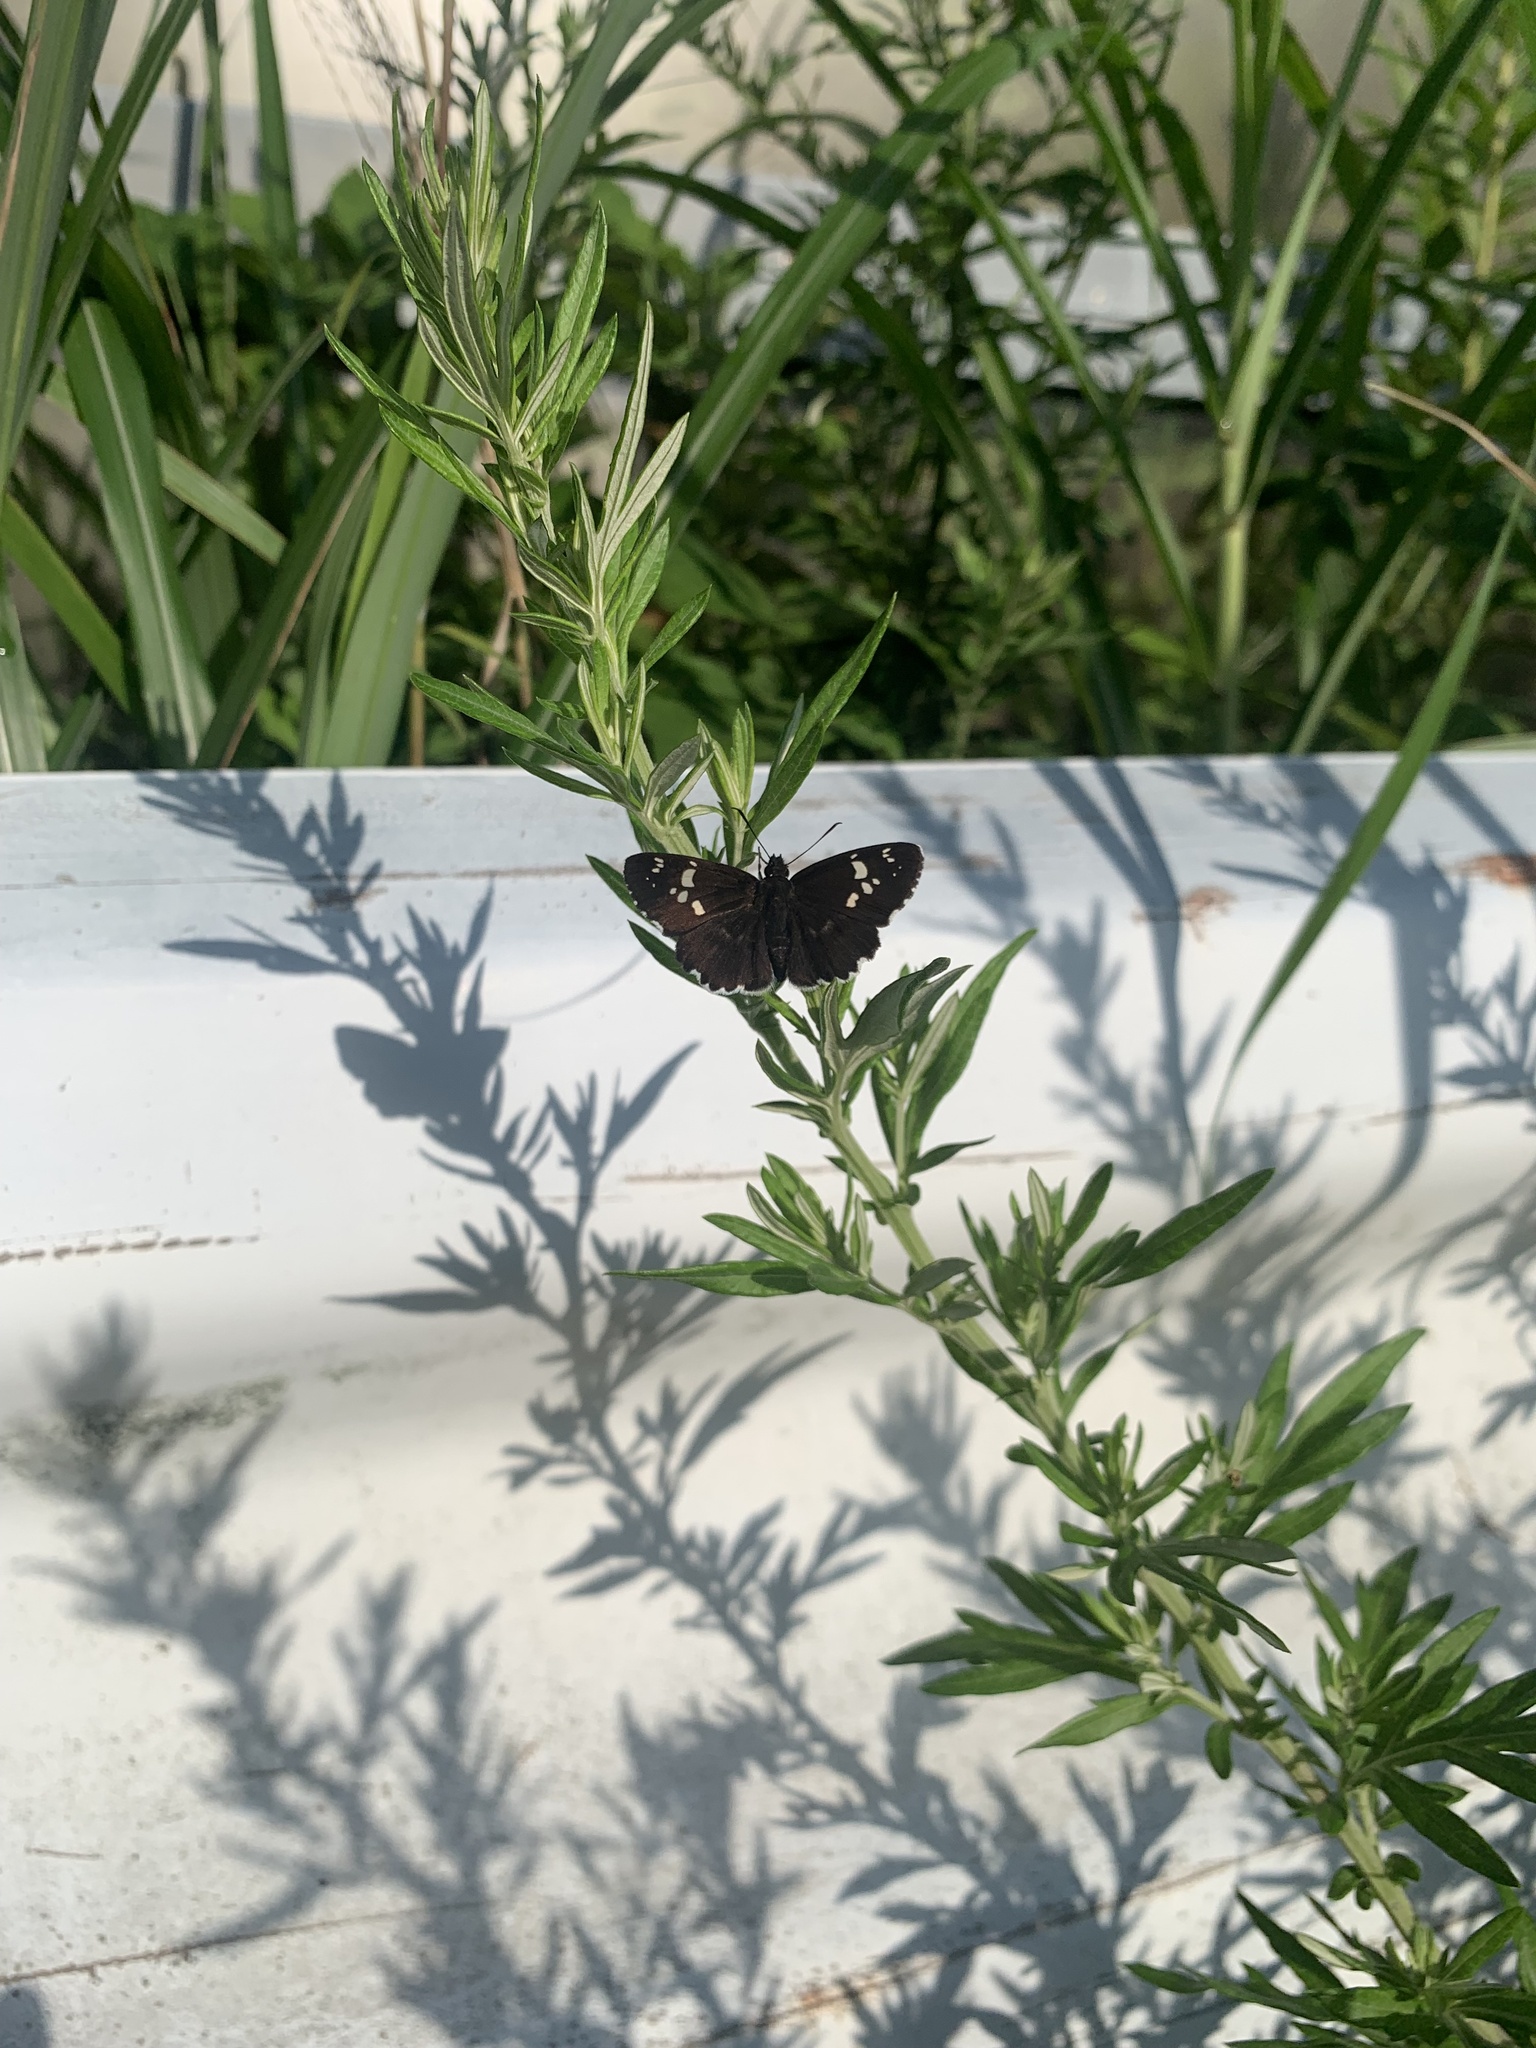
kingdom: Animalia
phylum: Arthropoda
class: Insecta
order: Lepidoptera
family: Hesperiidae
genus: Daimio
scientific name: Daimio tethys
